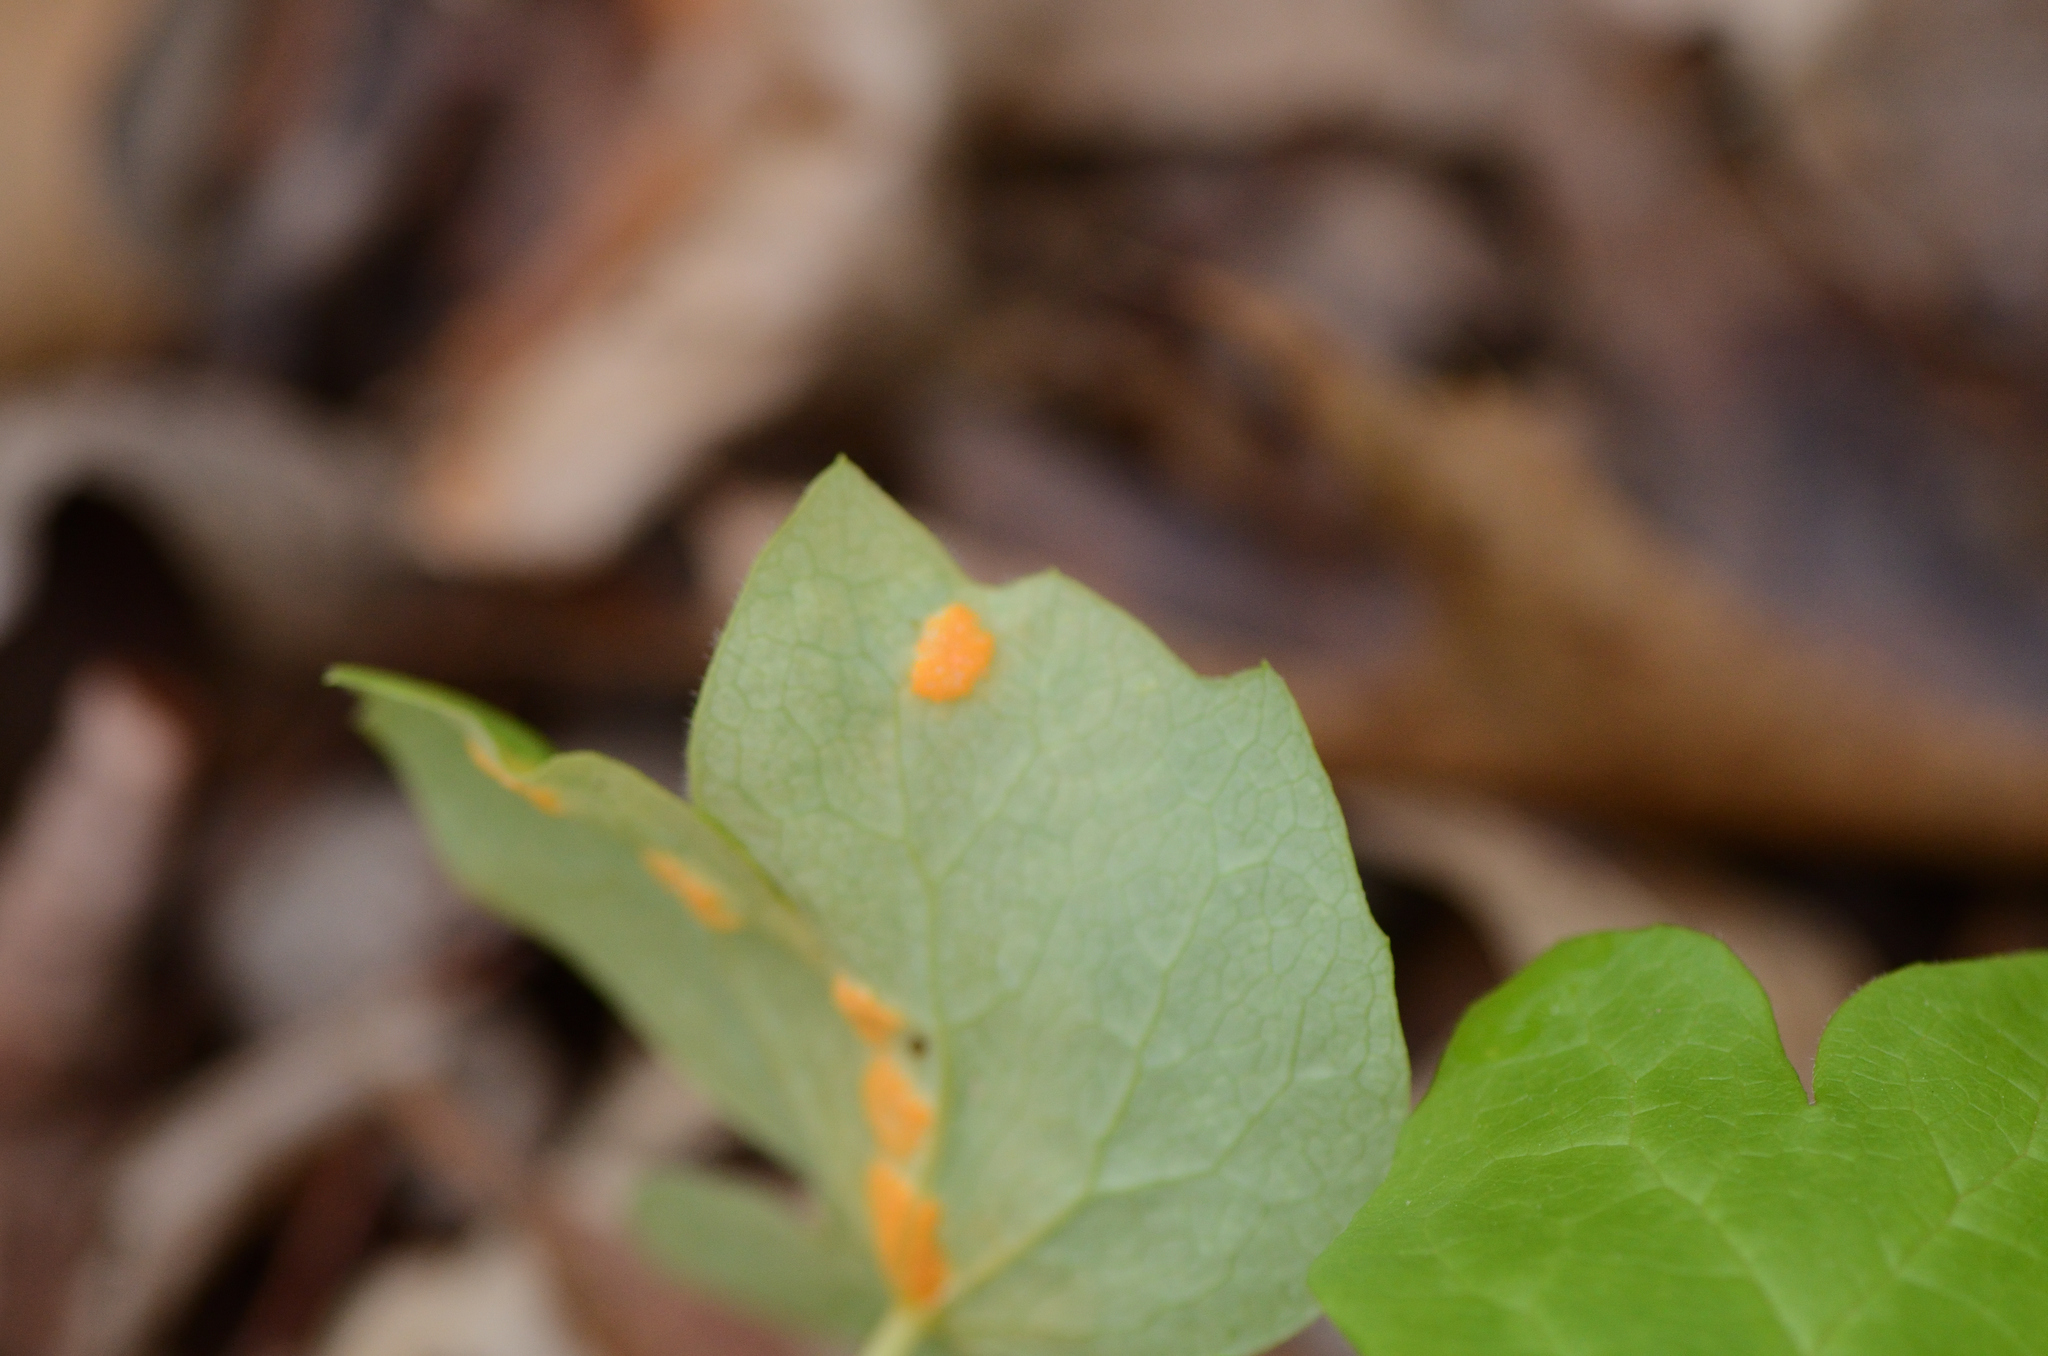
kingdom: Fungi
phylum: Basidiomycota
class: Pucciniomycetes
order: Pucciniales
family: Pucciniaceae
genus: Puccinia
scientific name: Puccinia podophylli
